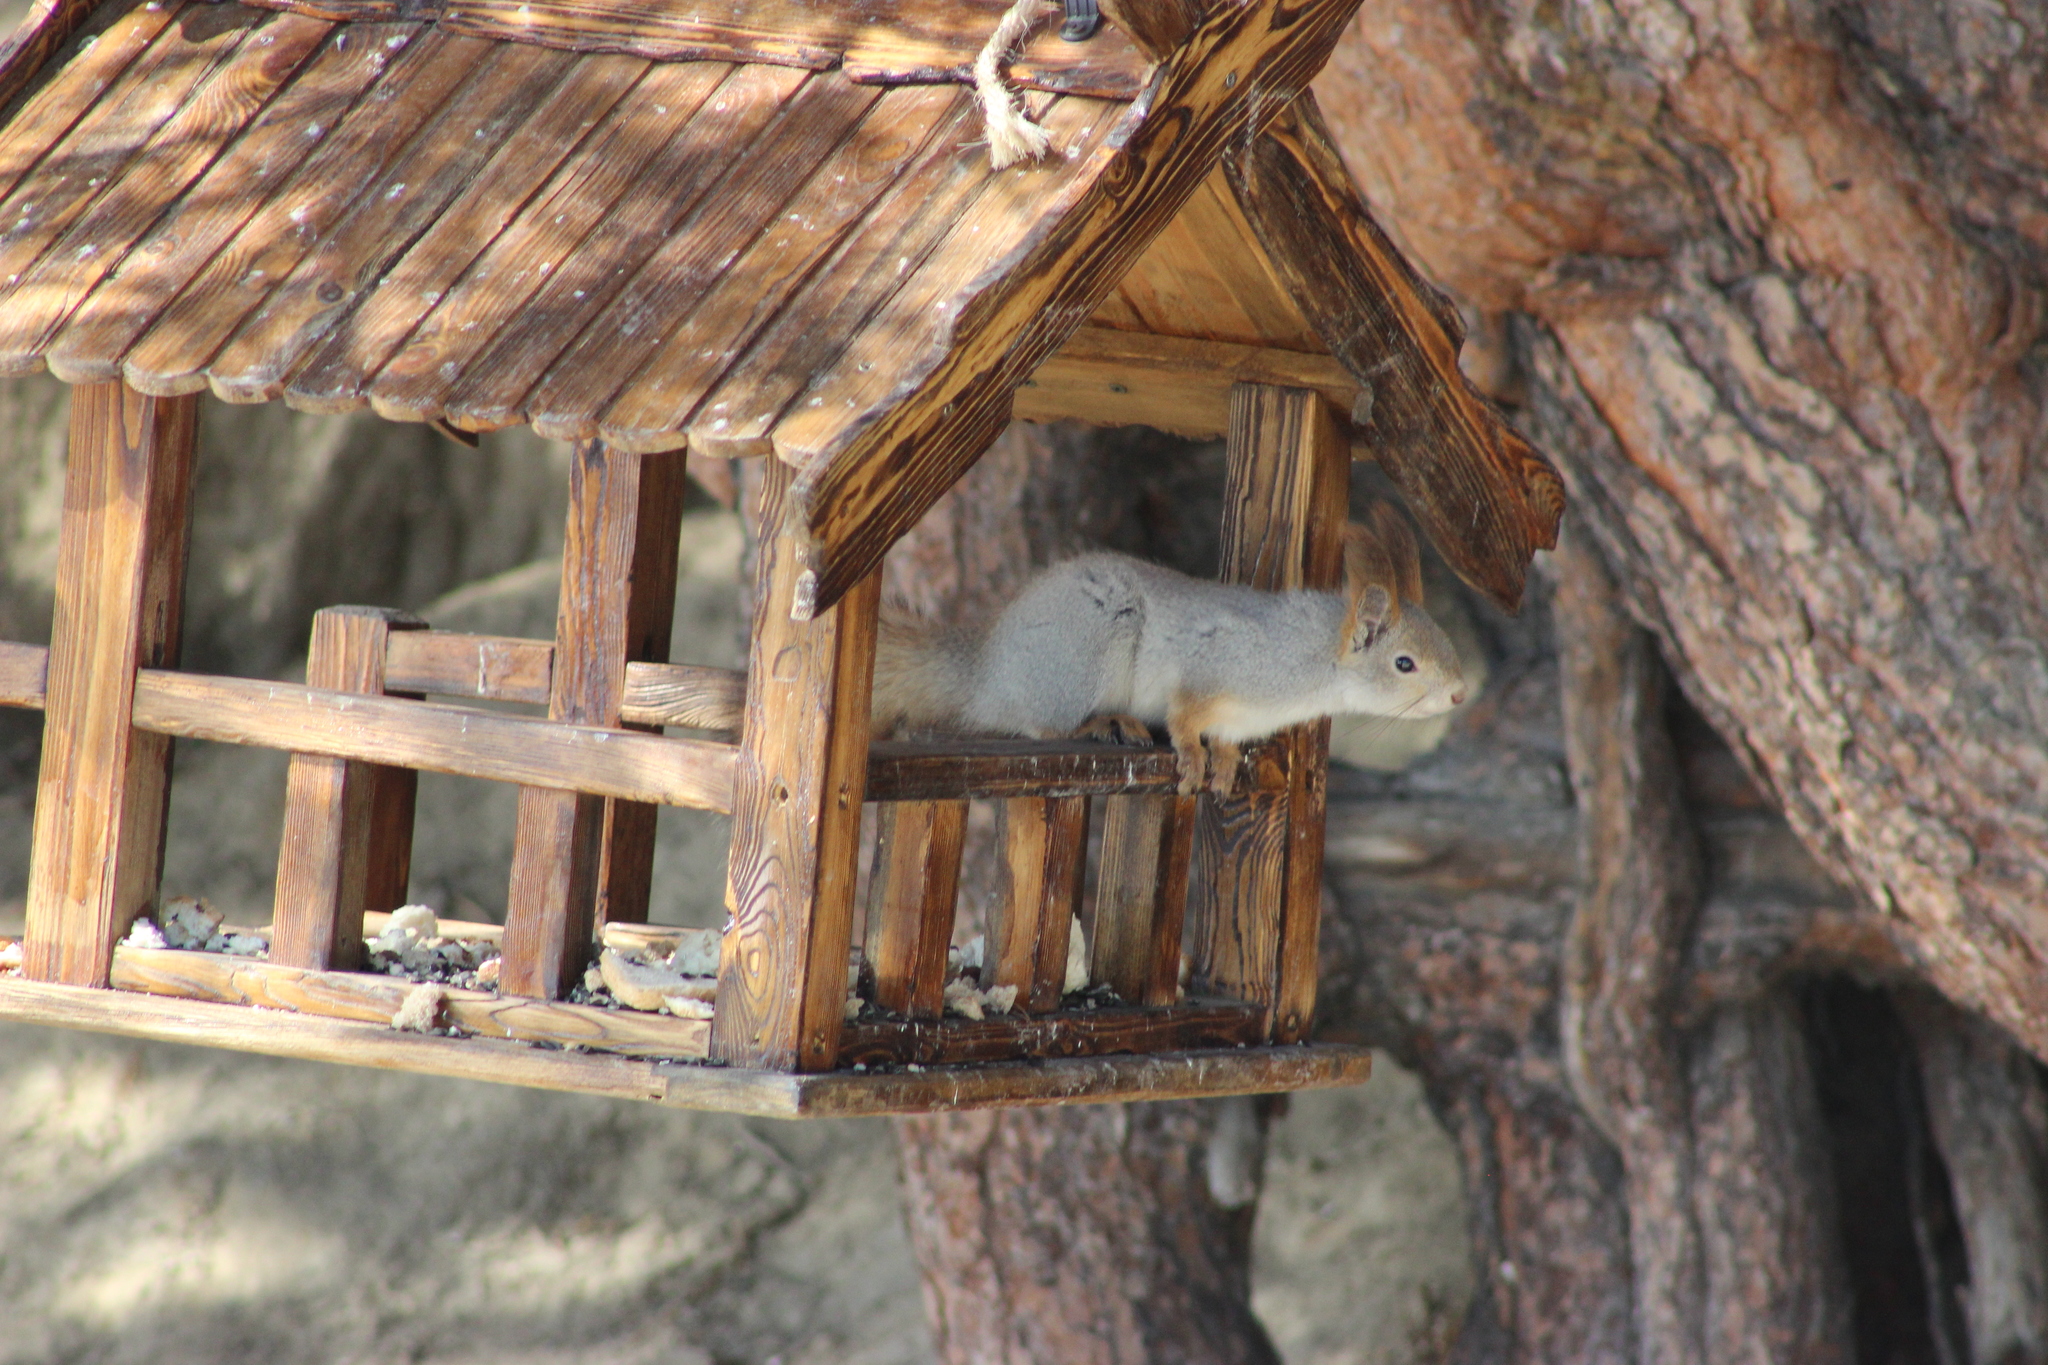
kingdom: Animalia
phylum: Chordata
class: Mammalia
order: Rodentia
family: Sciuridae
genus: Sciurus
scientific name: Sciurus vulgaris
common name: Eurasian red squirrel
